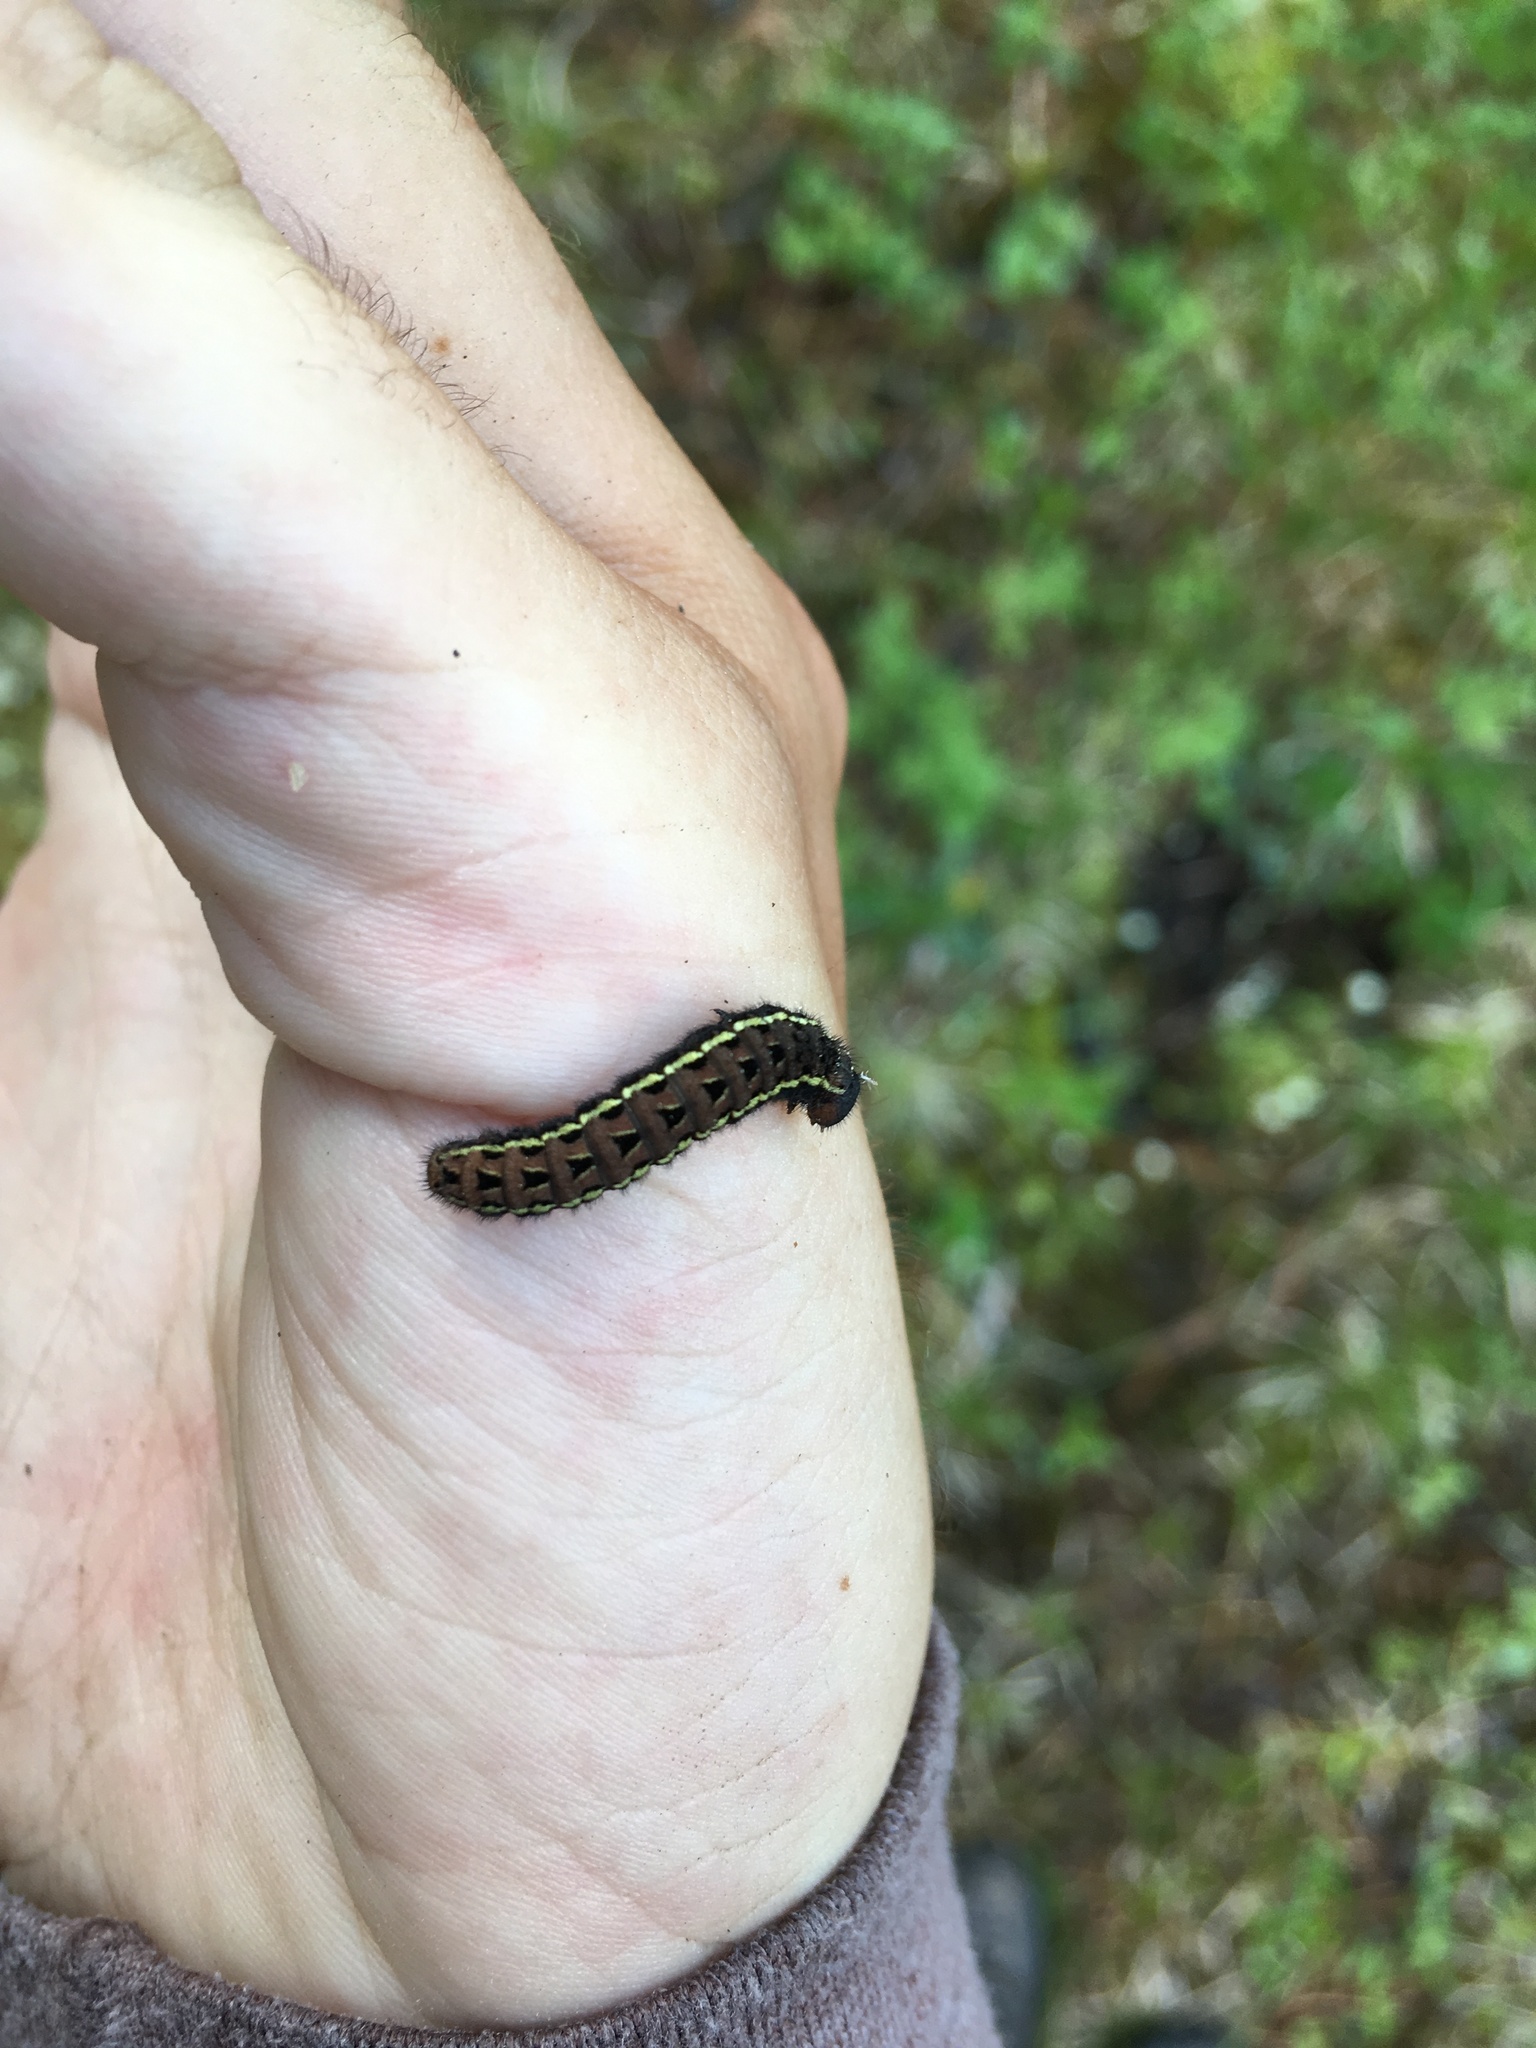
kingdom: Animalia
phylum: Arthropoda
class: Insecta
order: Lepidoptera
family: Papilionidae
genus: Parnassius
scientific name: Parnassius stubbendorfii
